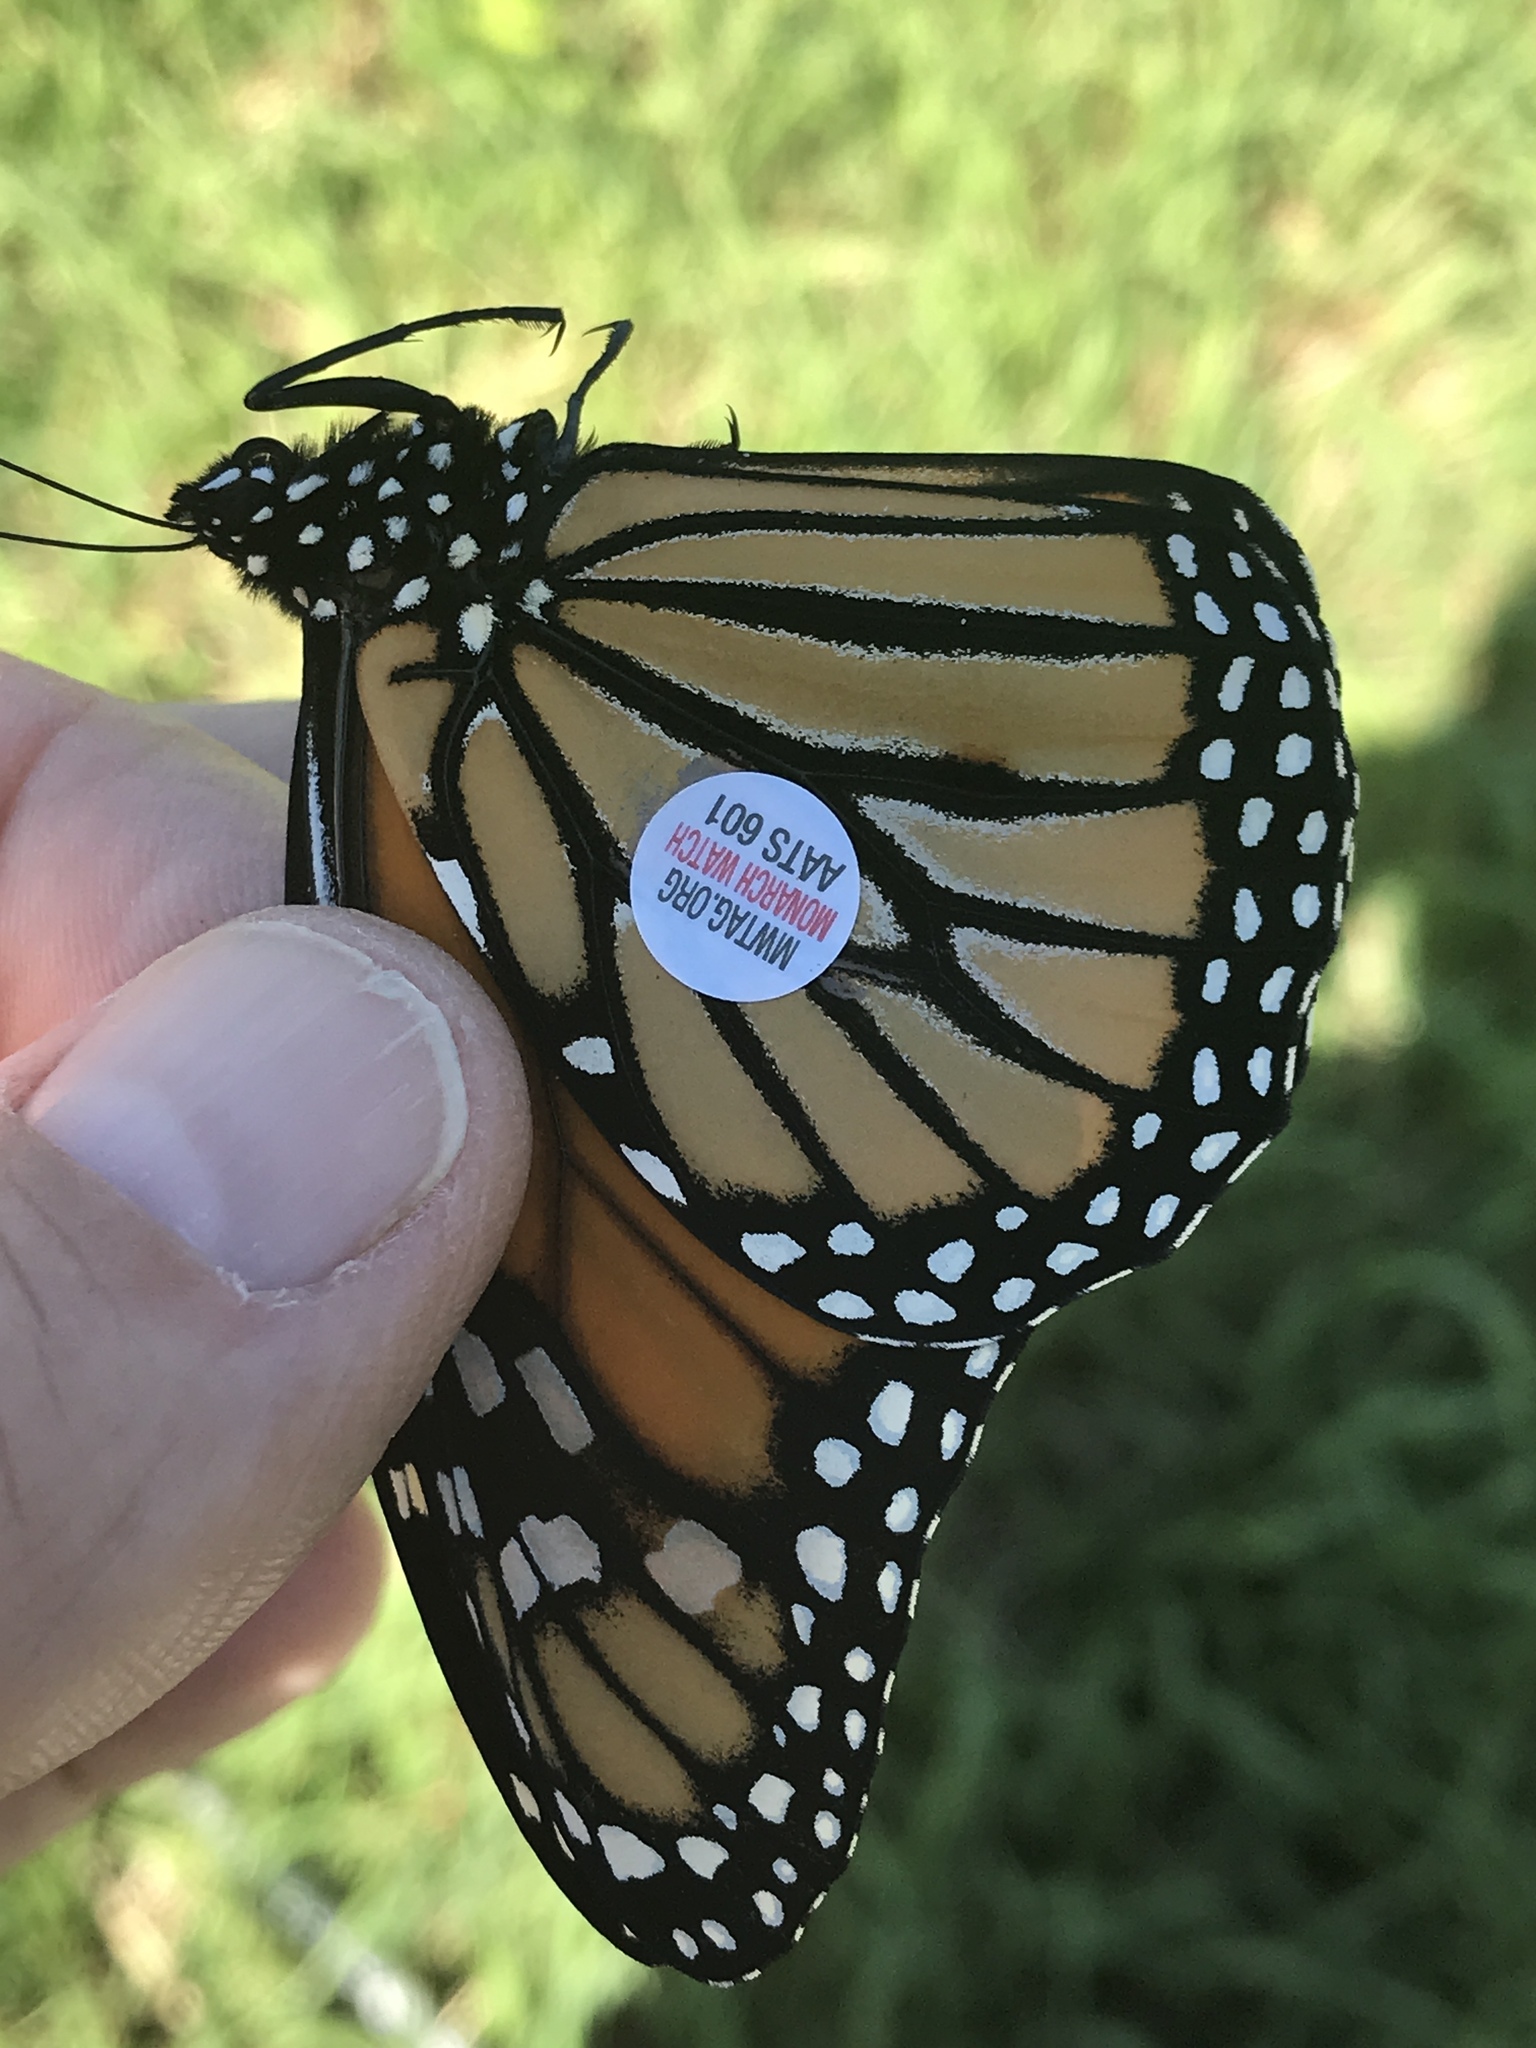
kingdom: Animalia
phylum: Arthropoda
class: Insecta
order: Lepidoptera
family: Nymphalidae
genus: Danaus
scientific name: Danaus plexippus
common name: Monarch
